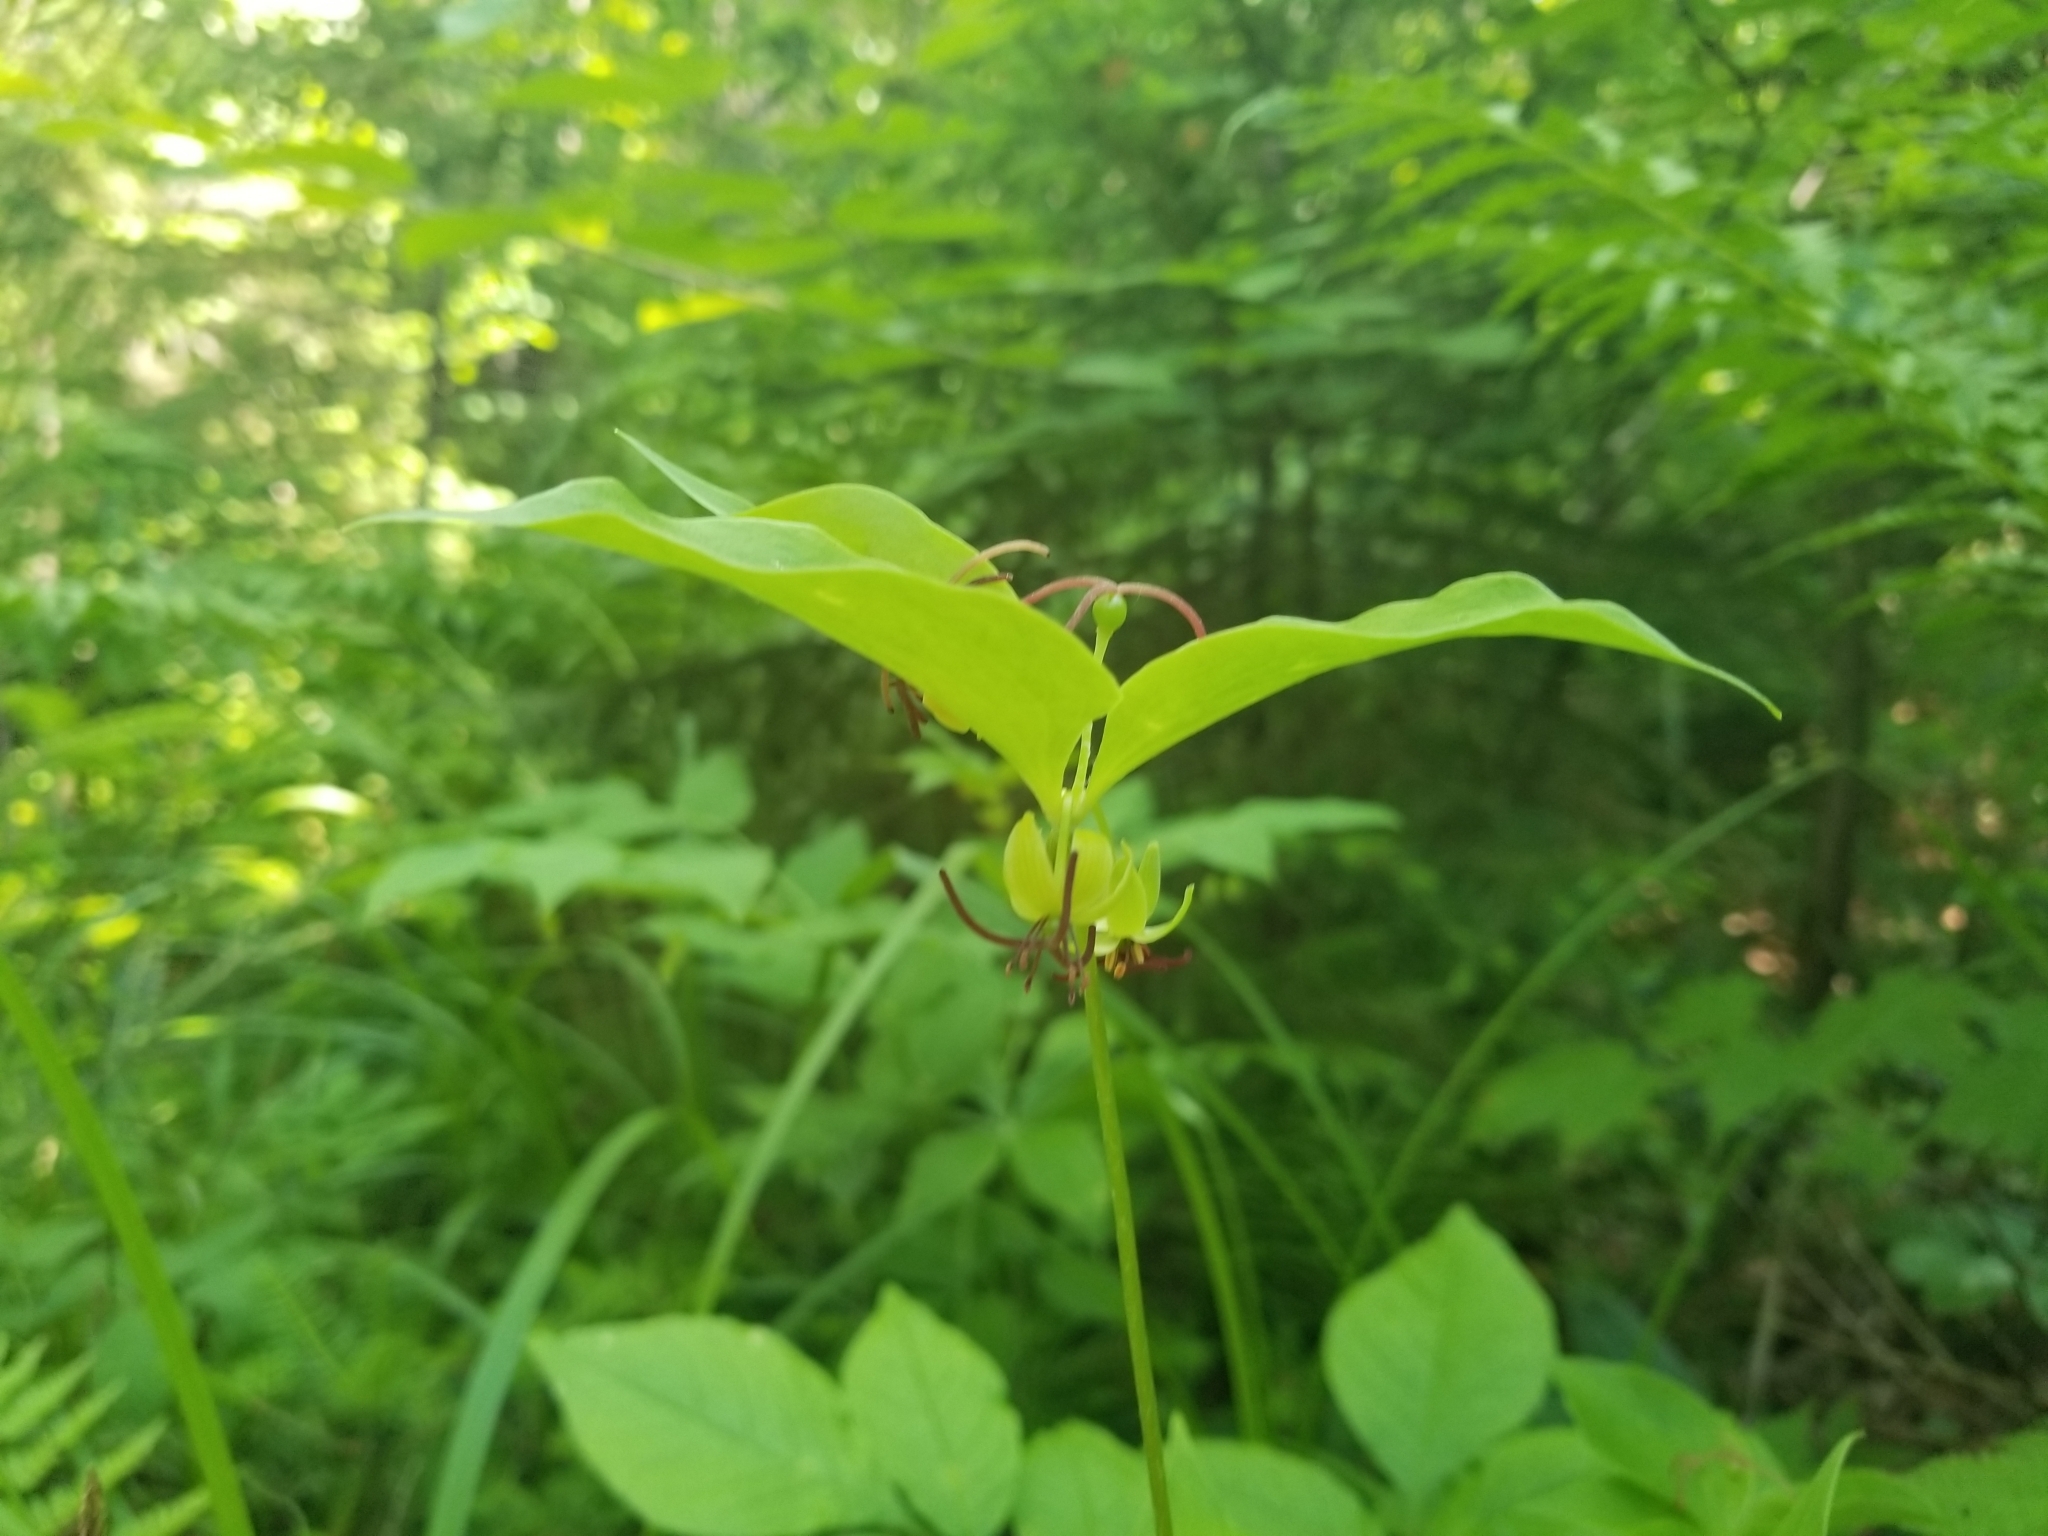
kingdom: Plantae
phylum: Tracheophyta
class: Liliopsida
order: Liliales
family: Liliaceae
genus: Medeola
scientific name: Medeola virginiana
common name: Indian cucumber-root
